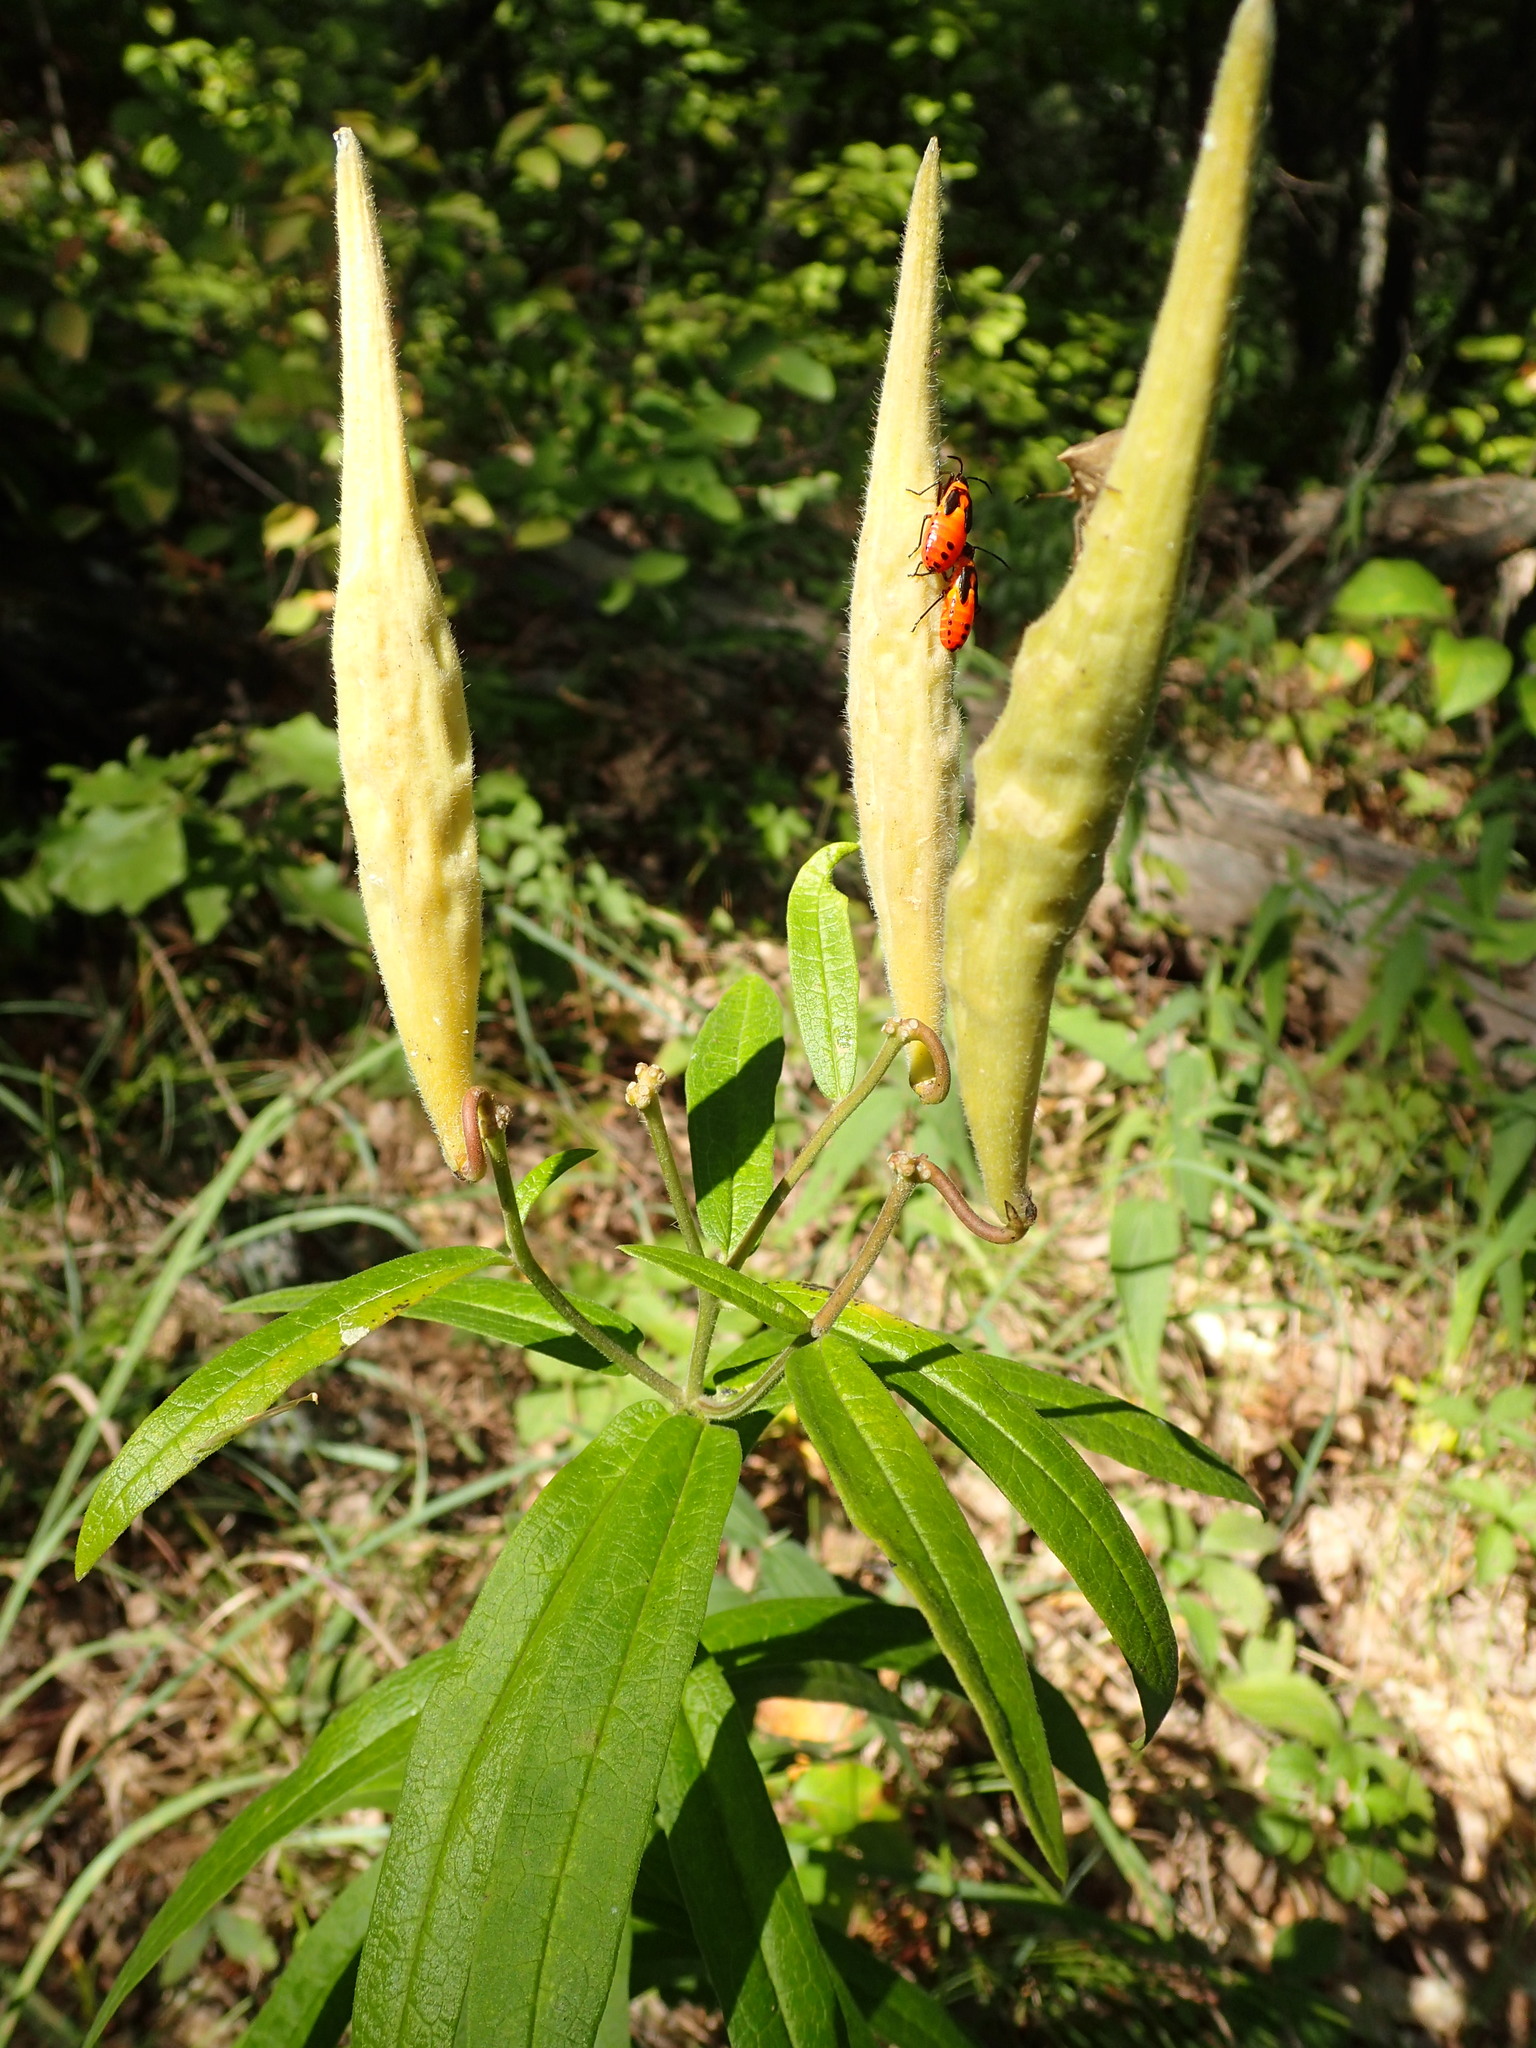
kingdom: Animalia
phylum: Arthropoda
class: Insecta
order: Hemiptera
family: Lygaeidae
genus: Oncopeltus
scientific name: Oncopeltus fasciatus
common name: Large milkweed bug
